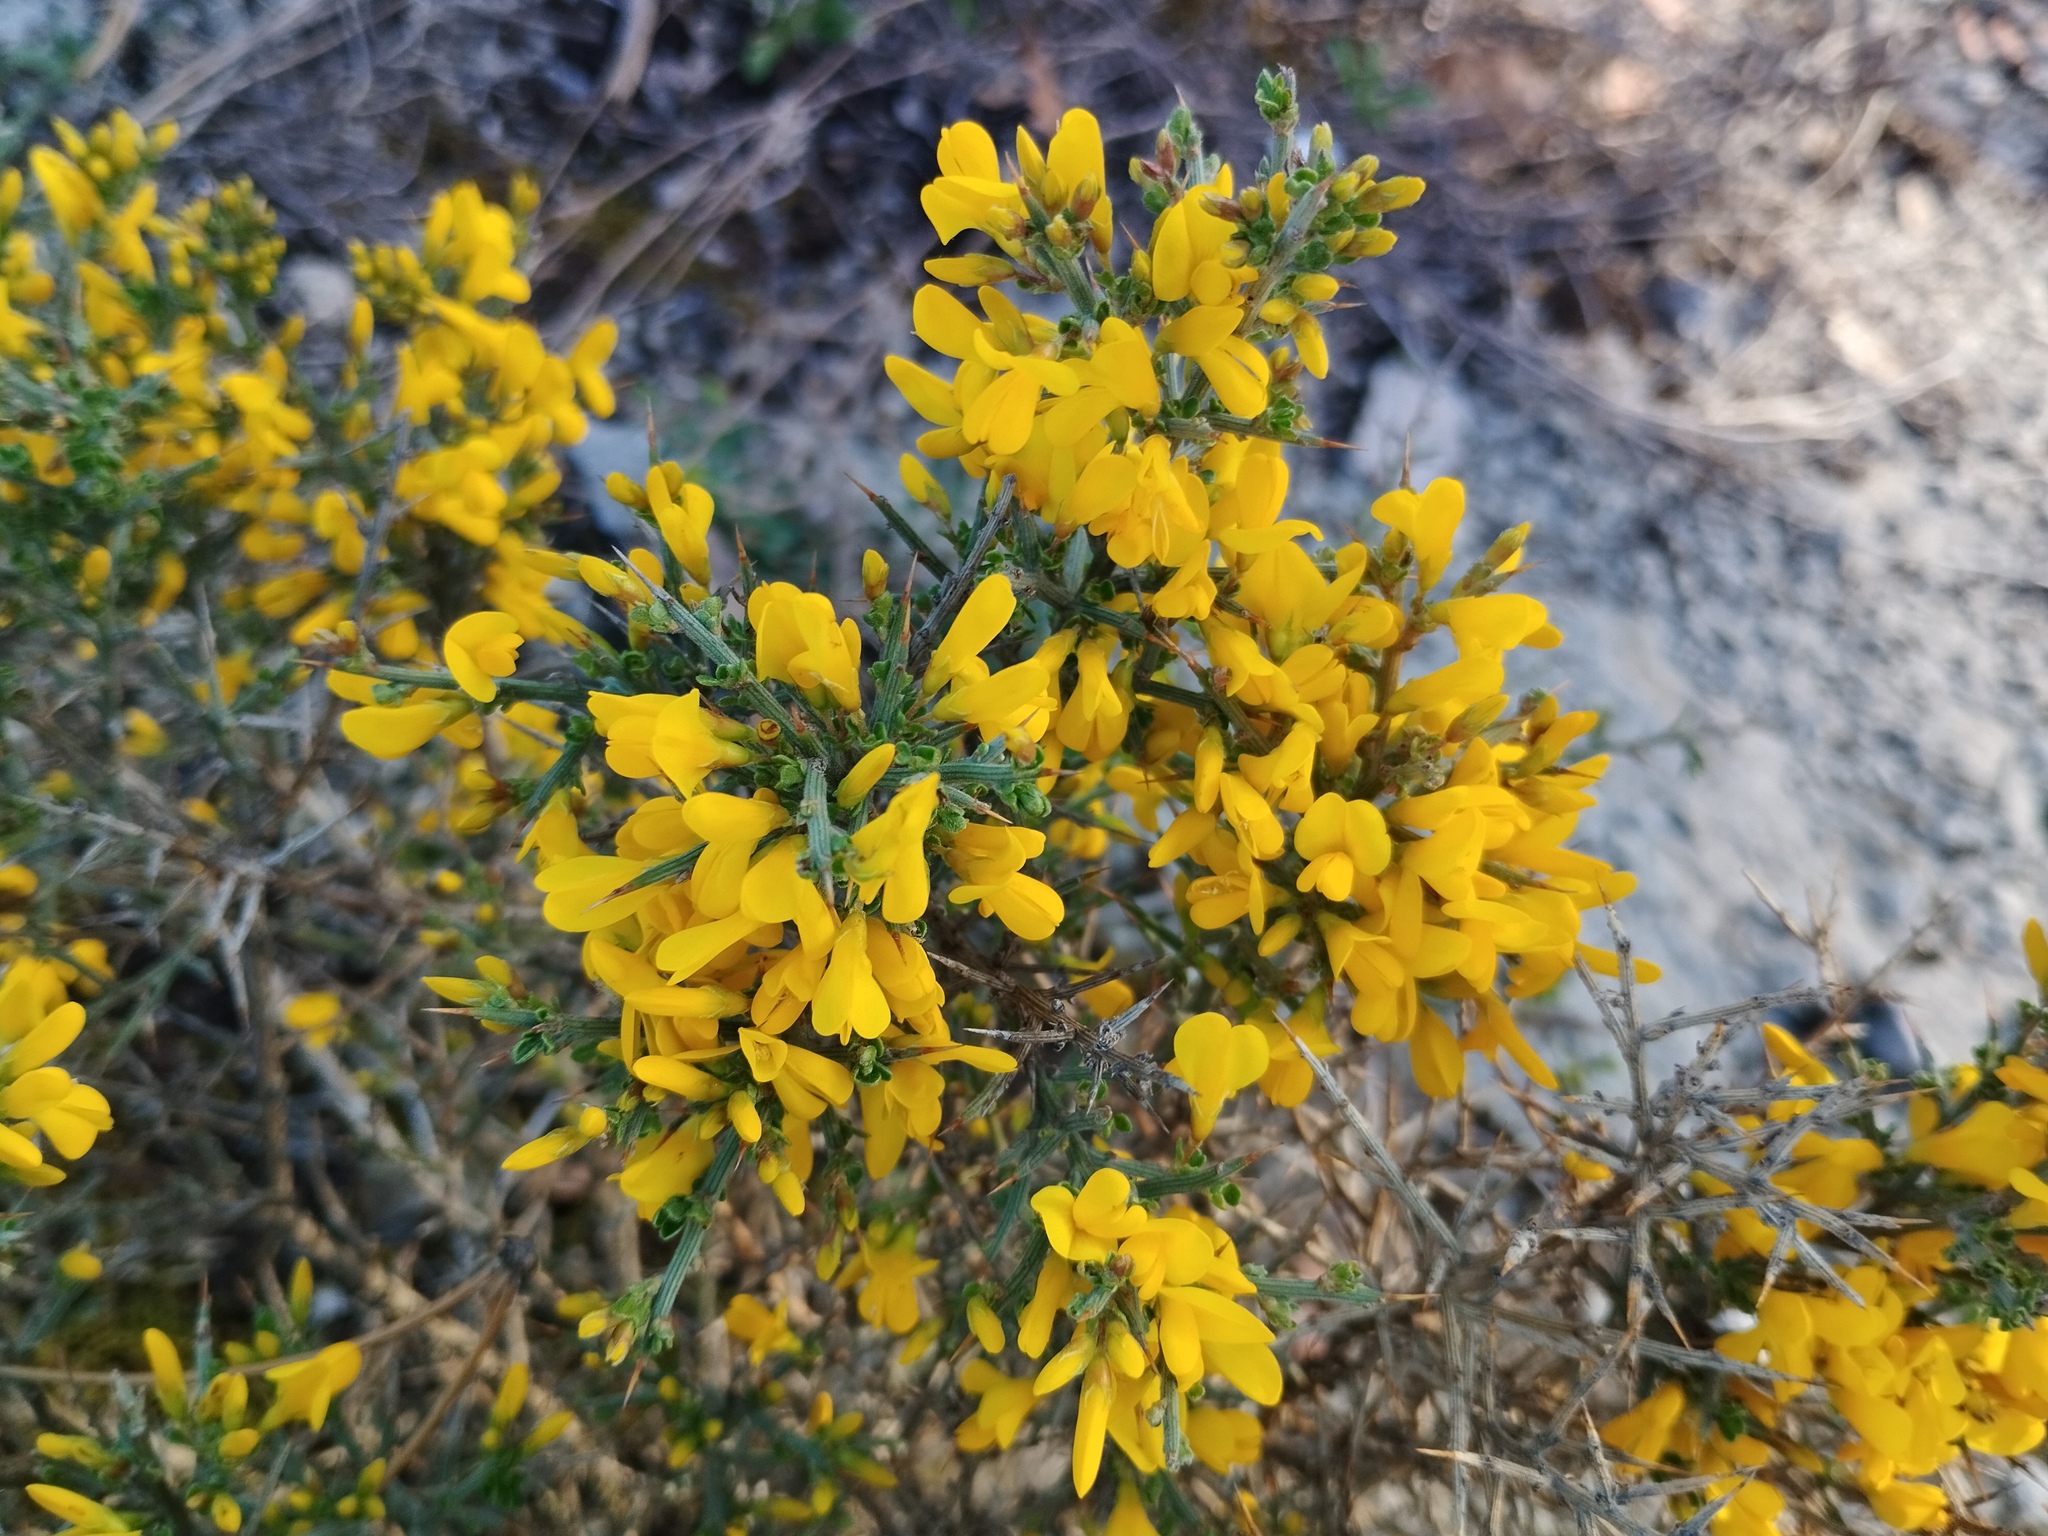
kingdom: Plantae
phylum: Tracheophyta
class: Magnoliopsida
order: Fabales
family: Fabaceae
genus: Genista
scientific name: Genista scorpius
